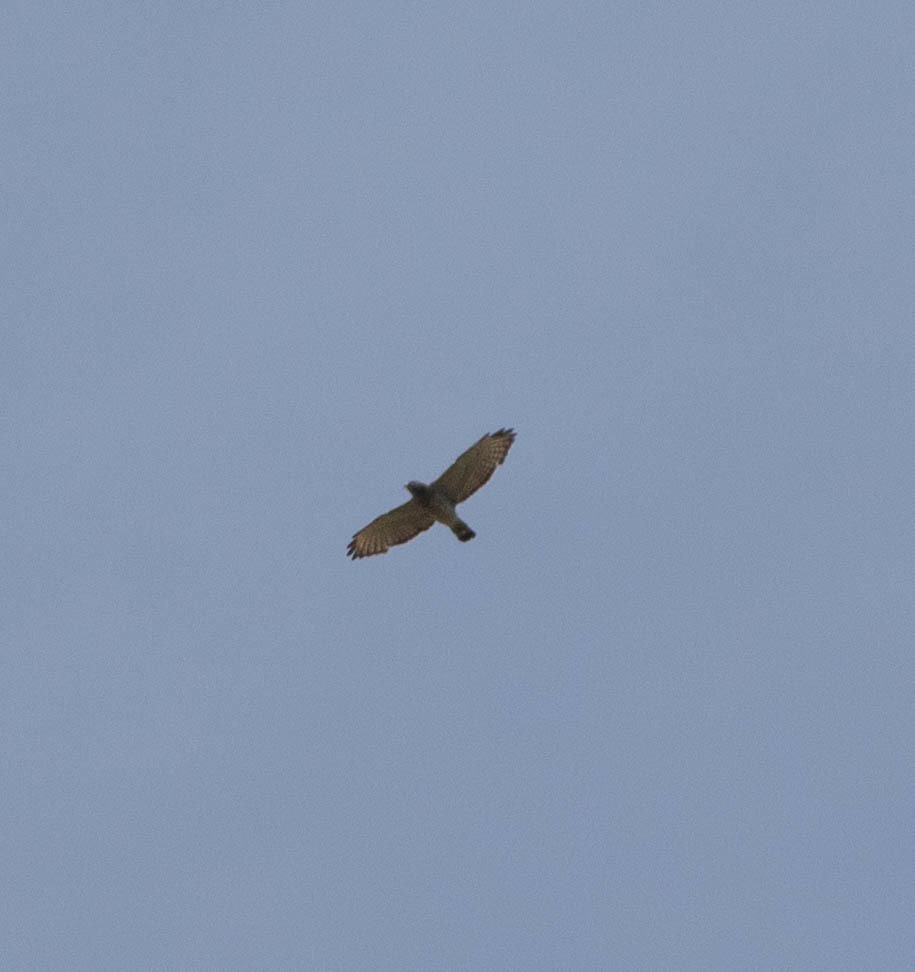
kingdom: Animalia
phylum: Chordata
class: Aves
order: Accipitriformes
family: Accipitridae
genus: Buteo
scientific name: Buteo platypterus
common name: Broad-winged hawk
